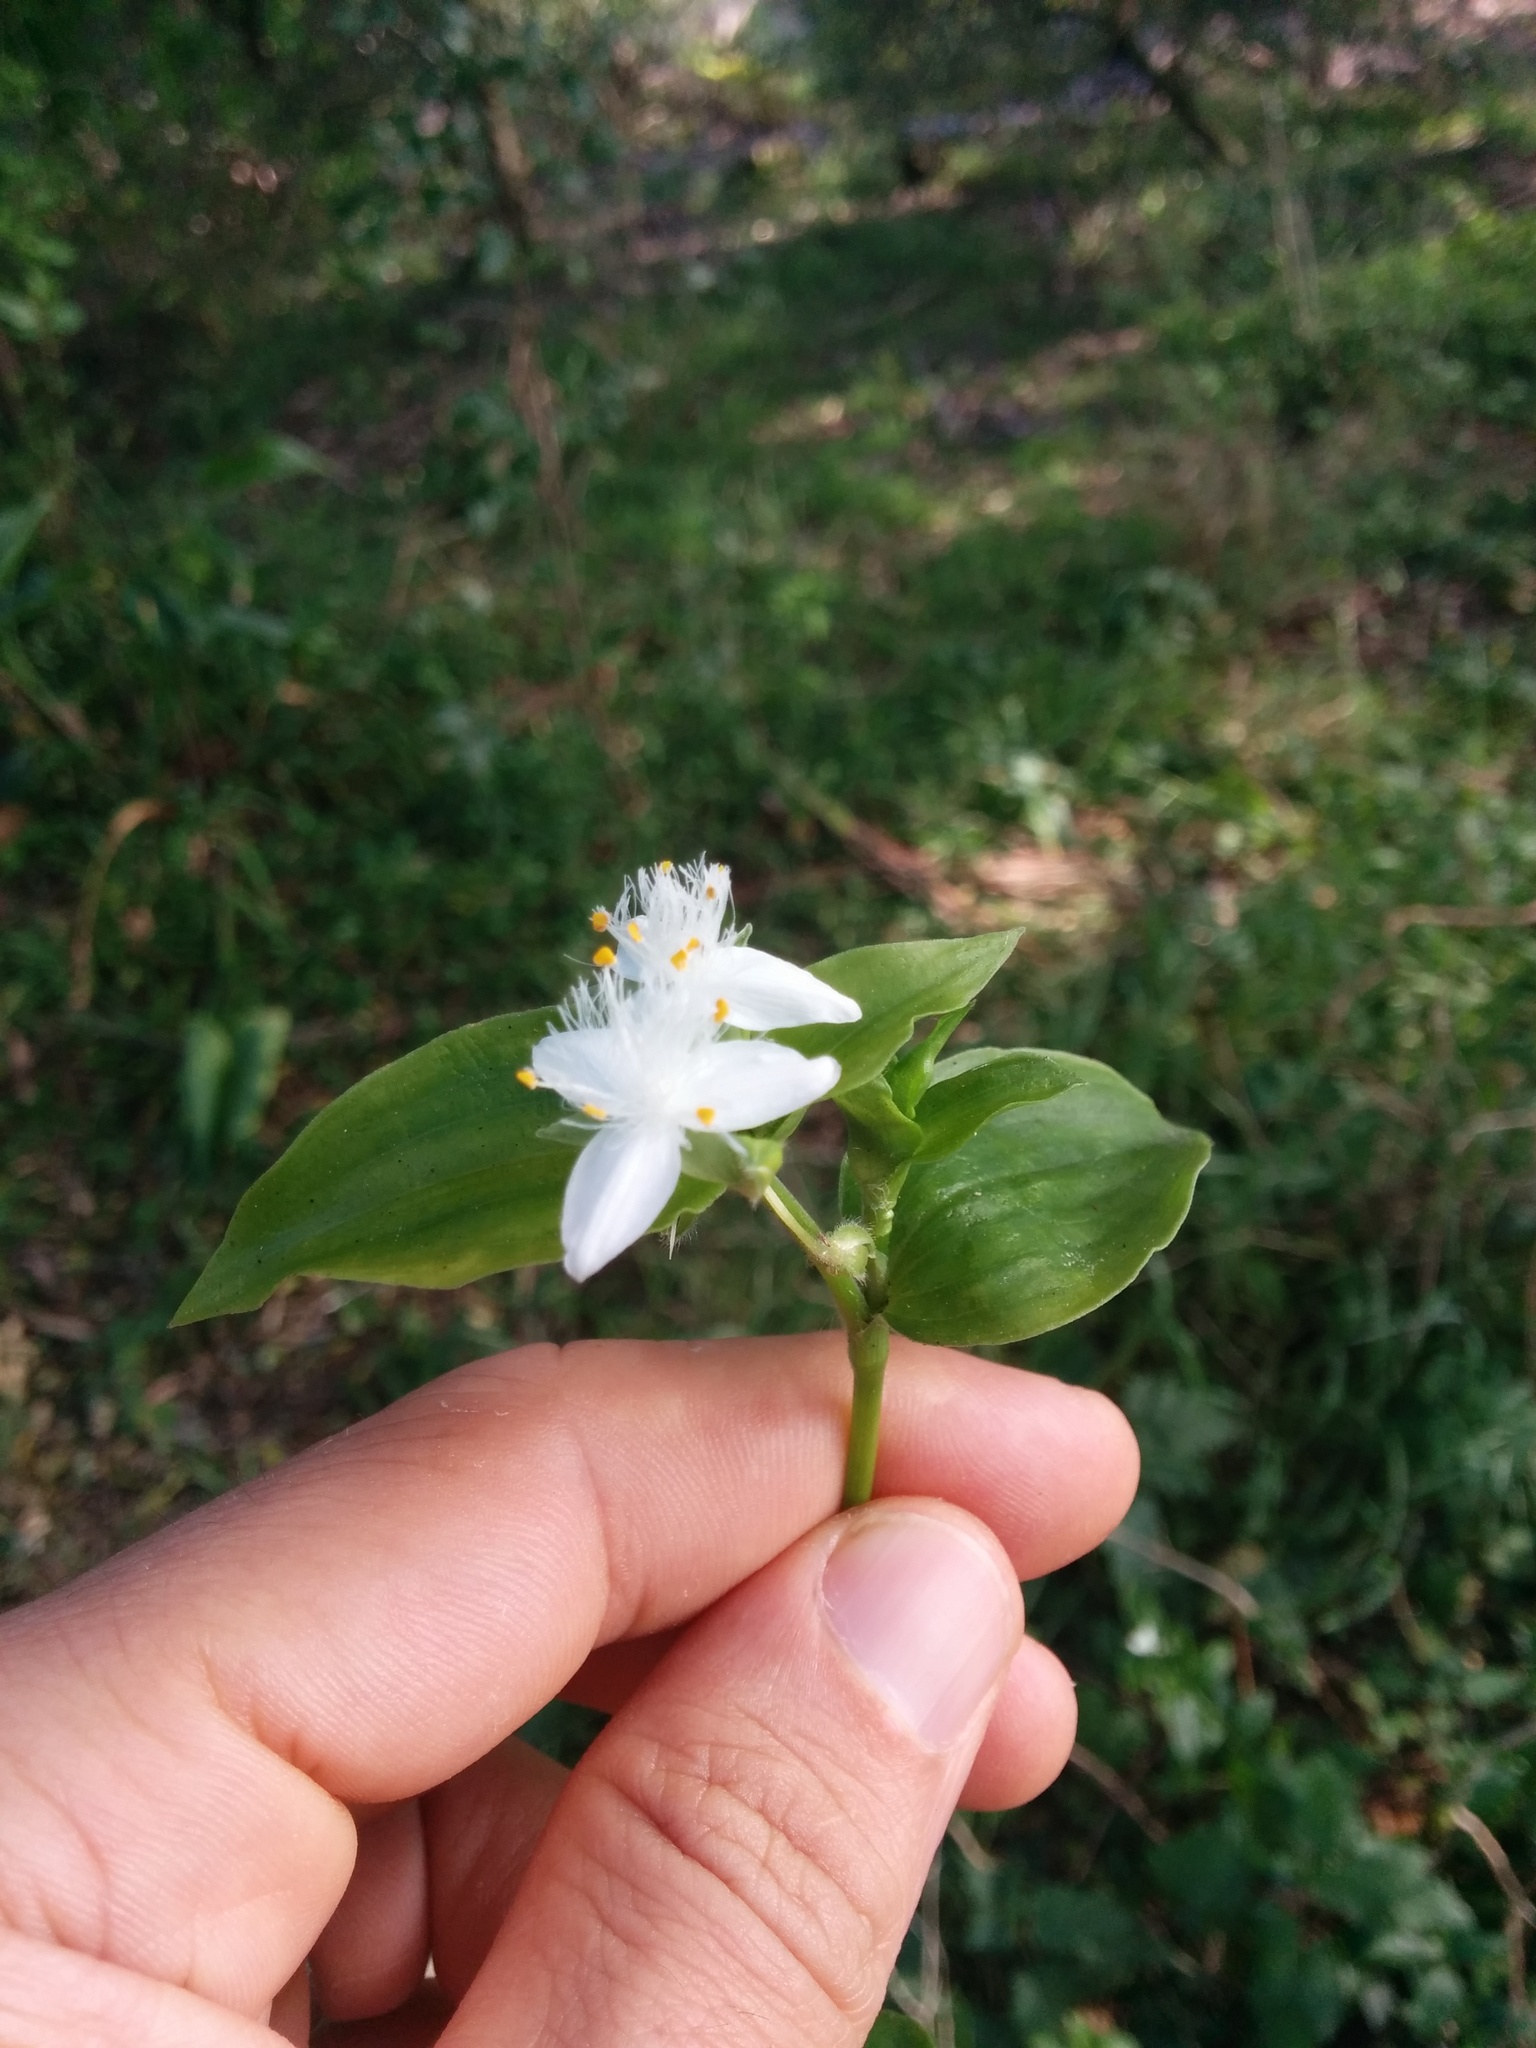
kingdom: Plantae
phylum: Tracheophyta
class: Liliopsida
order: Commelinales
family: Commelinaceae
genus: Tradescantia
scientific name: Tradescantia fluminensis
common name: Wandering-jew
